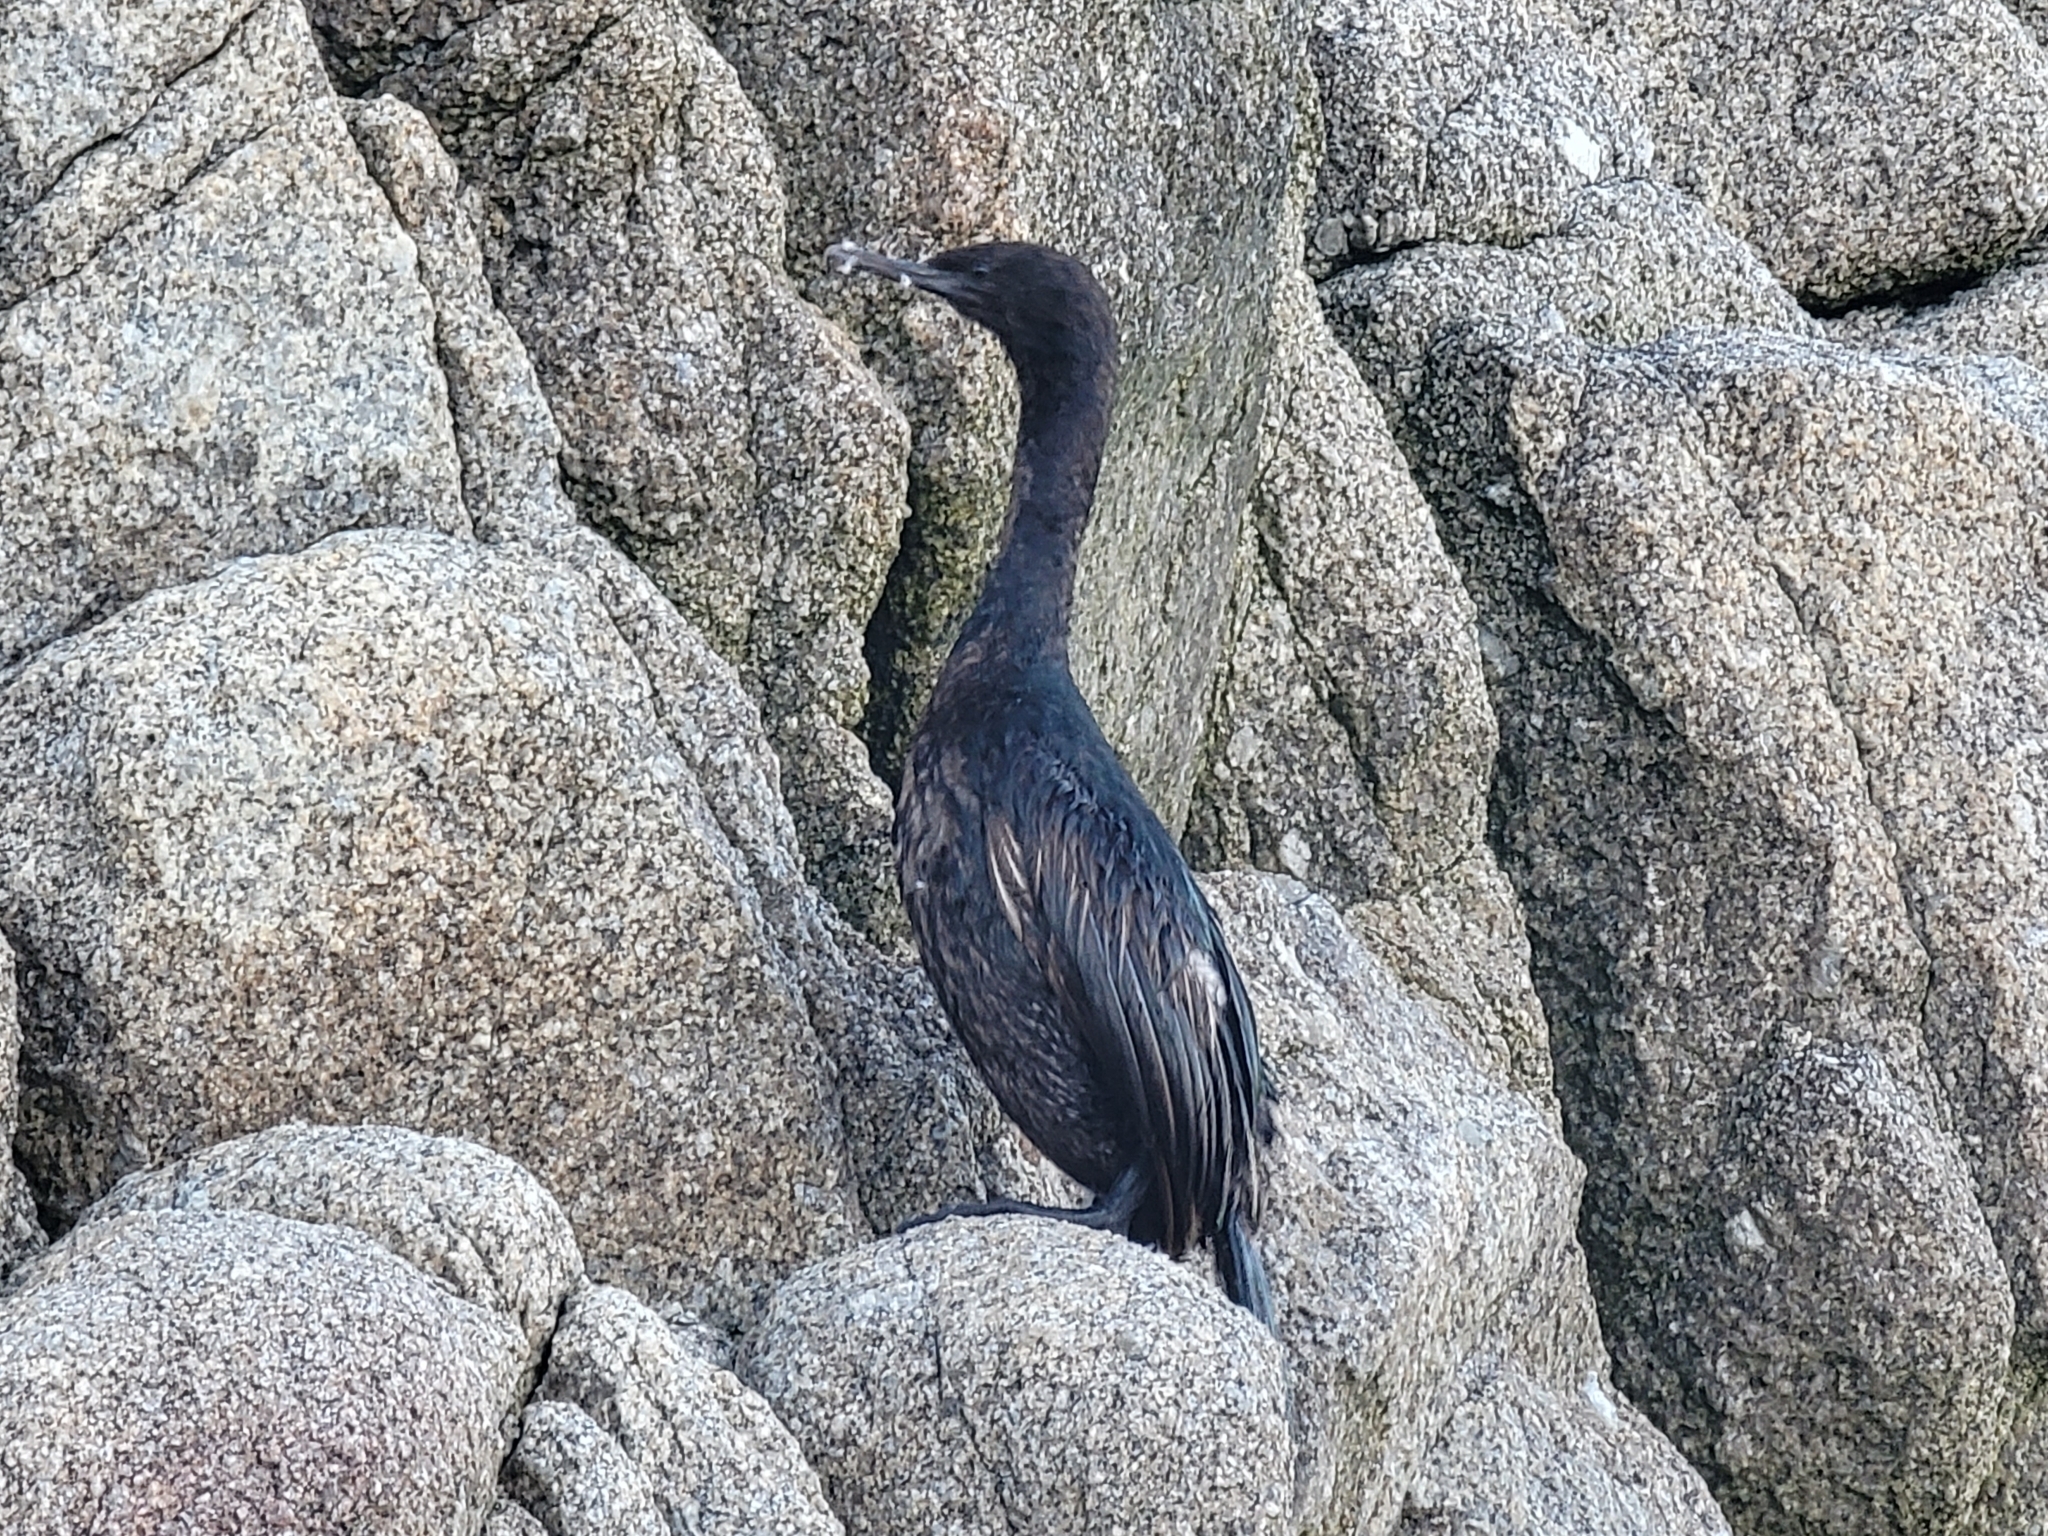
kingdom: Animalia
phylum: Chordata
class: Aves
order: Suliformes
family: Phalacrocoracidae
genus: Phalacrocorax
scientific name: Phalacrocorax pelagicus
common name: Pelagic cormorant
